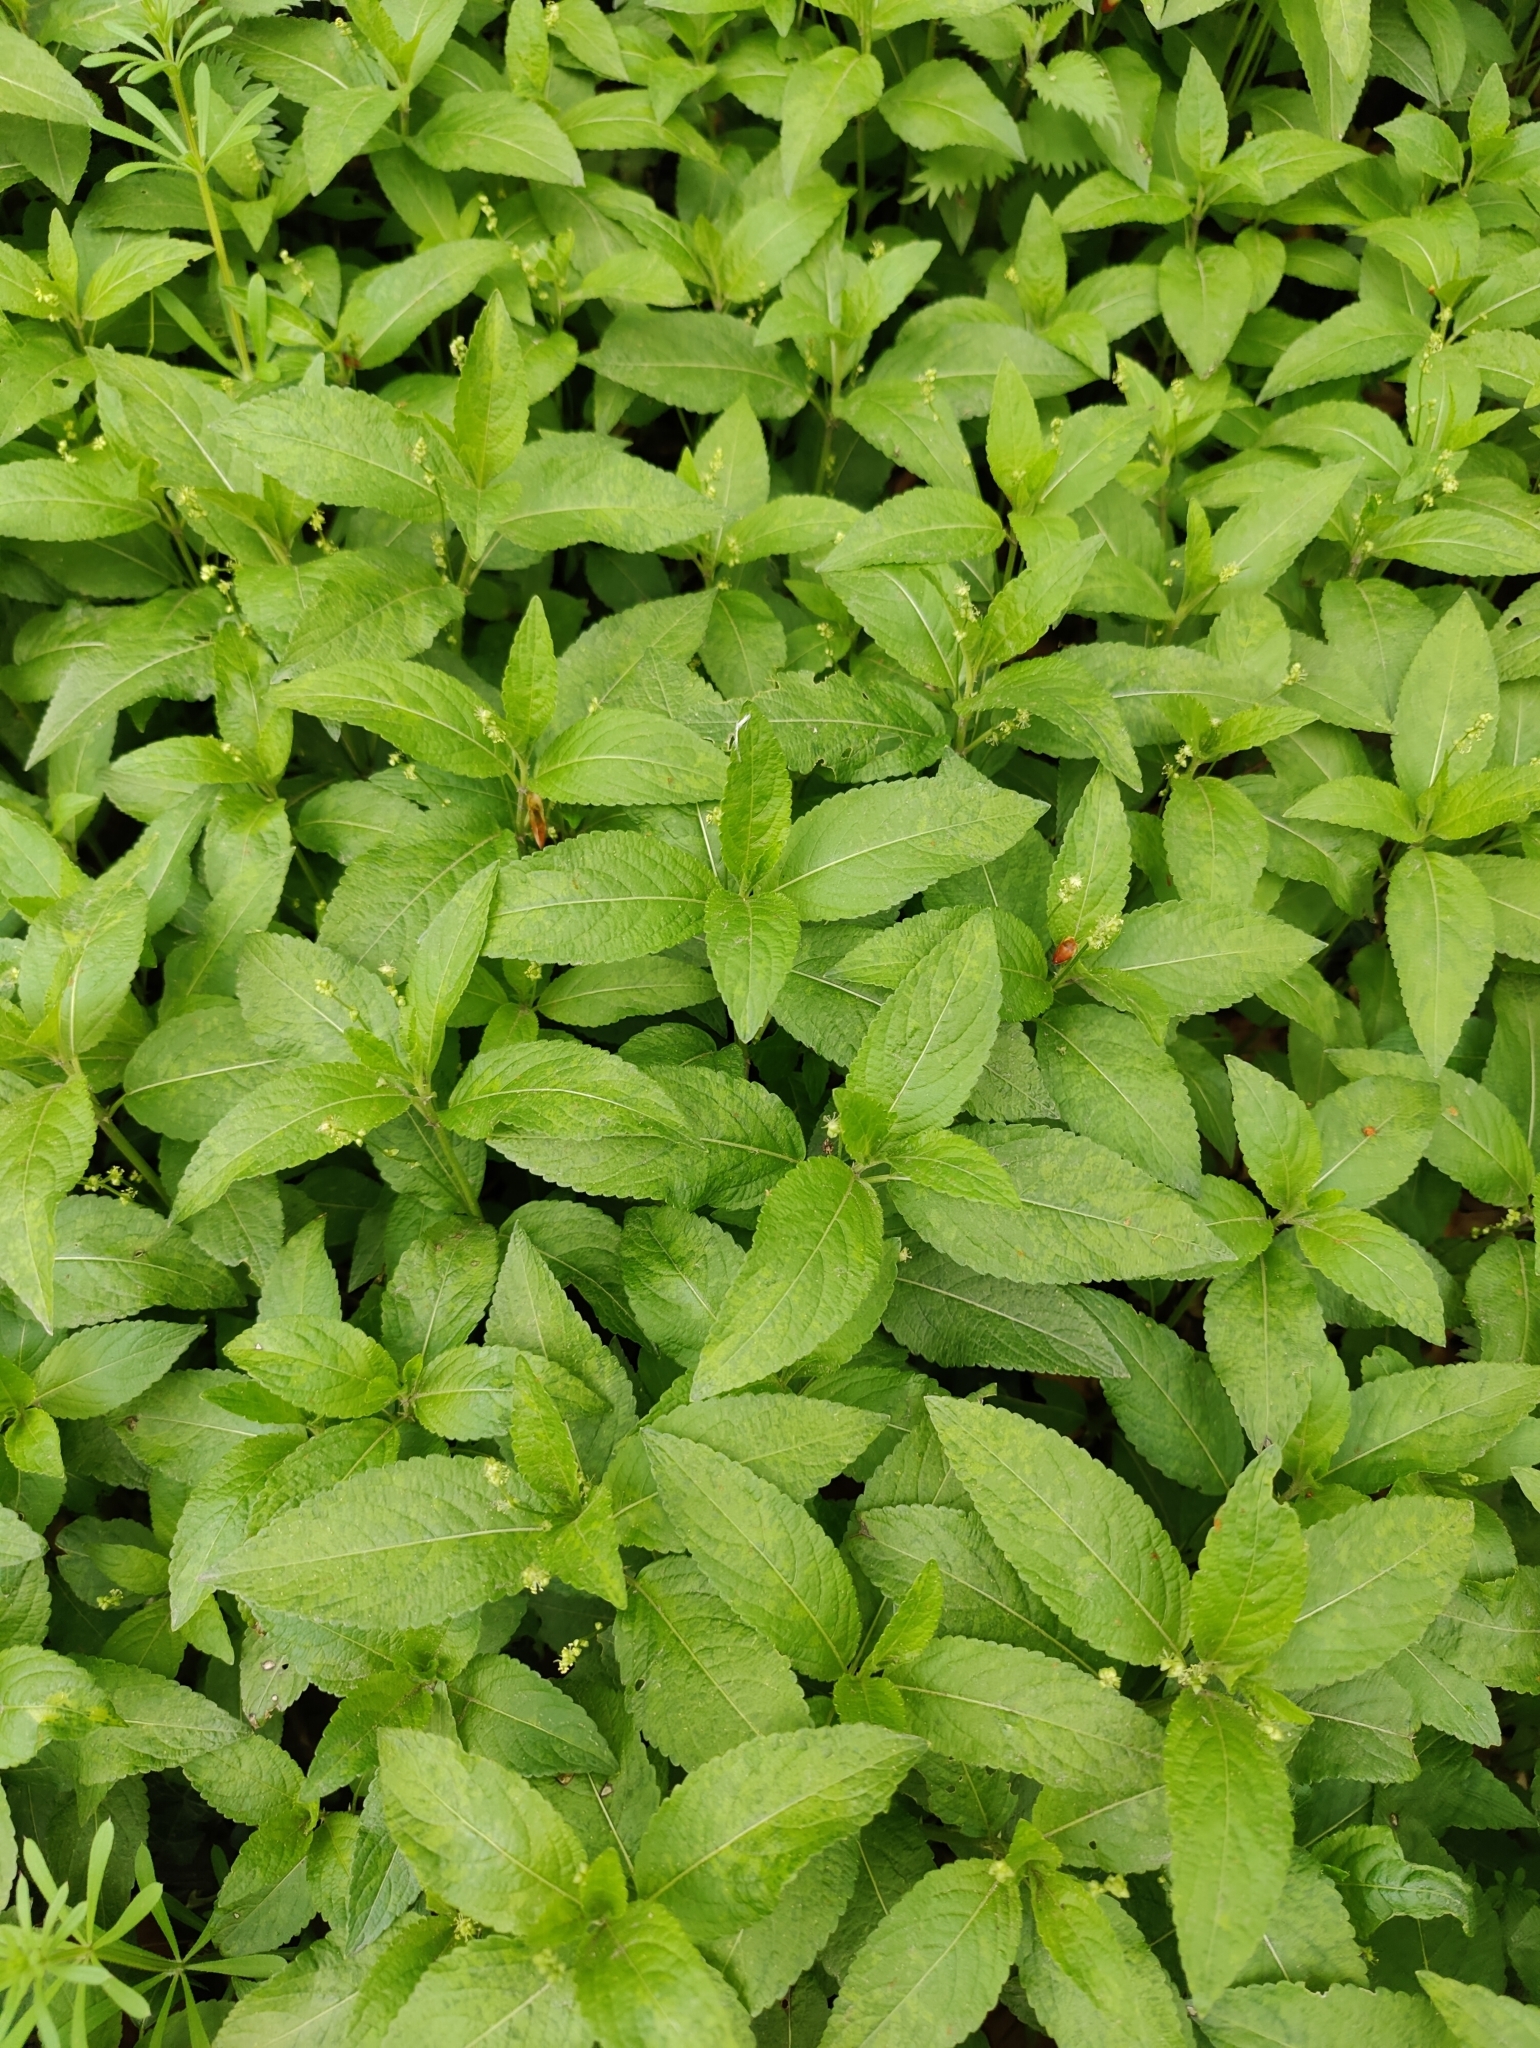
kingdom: Plantae
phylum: Tracheophyta
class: Magnoliopsida
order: Malpighiales
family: Euphorbiaceae
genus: Mercurialis
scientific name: Mercurialis perennis
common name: Dog mercury
